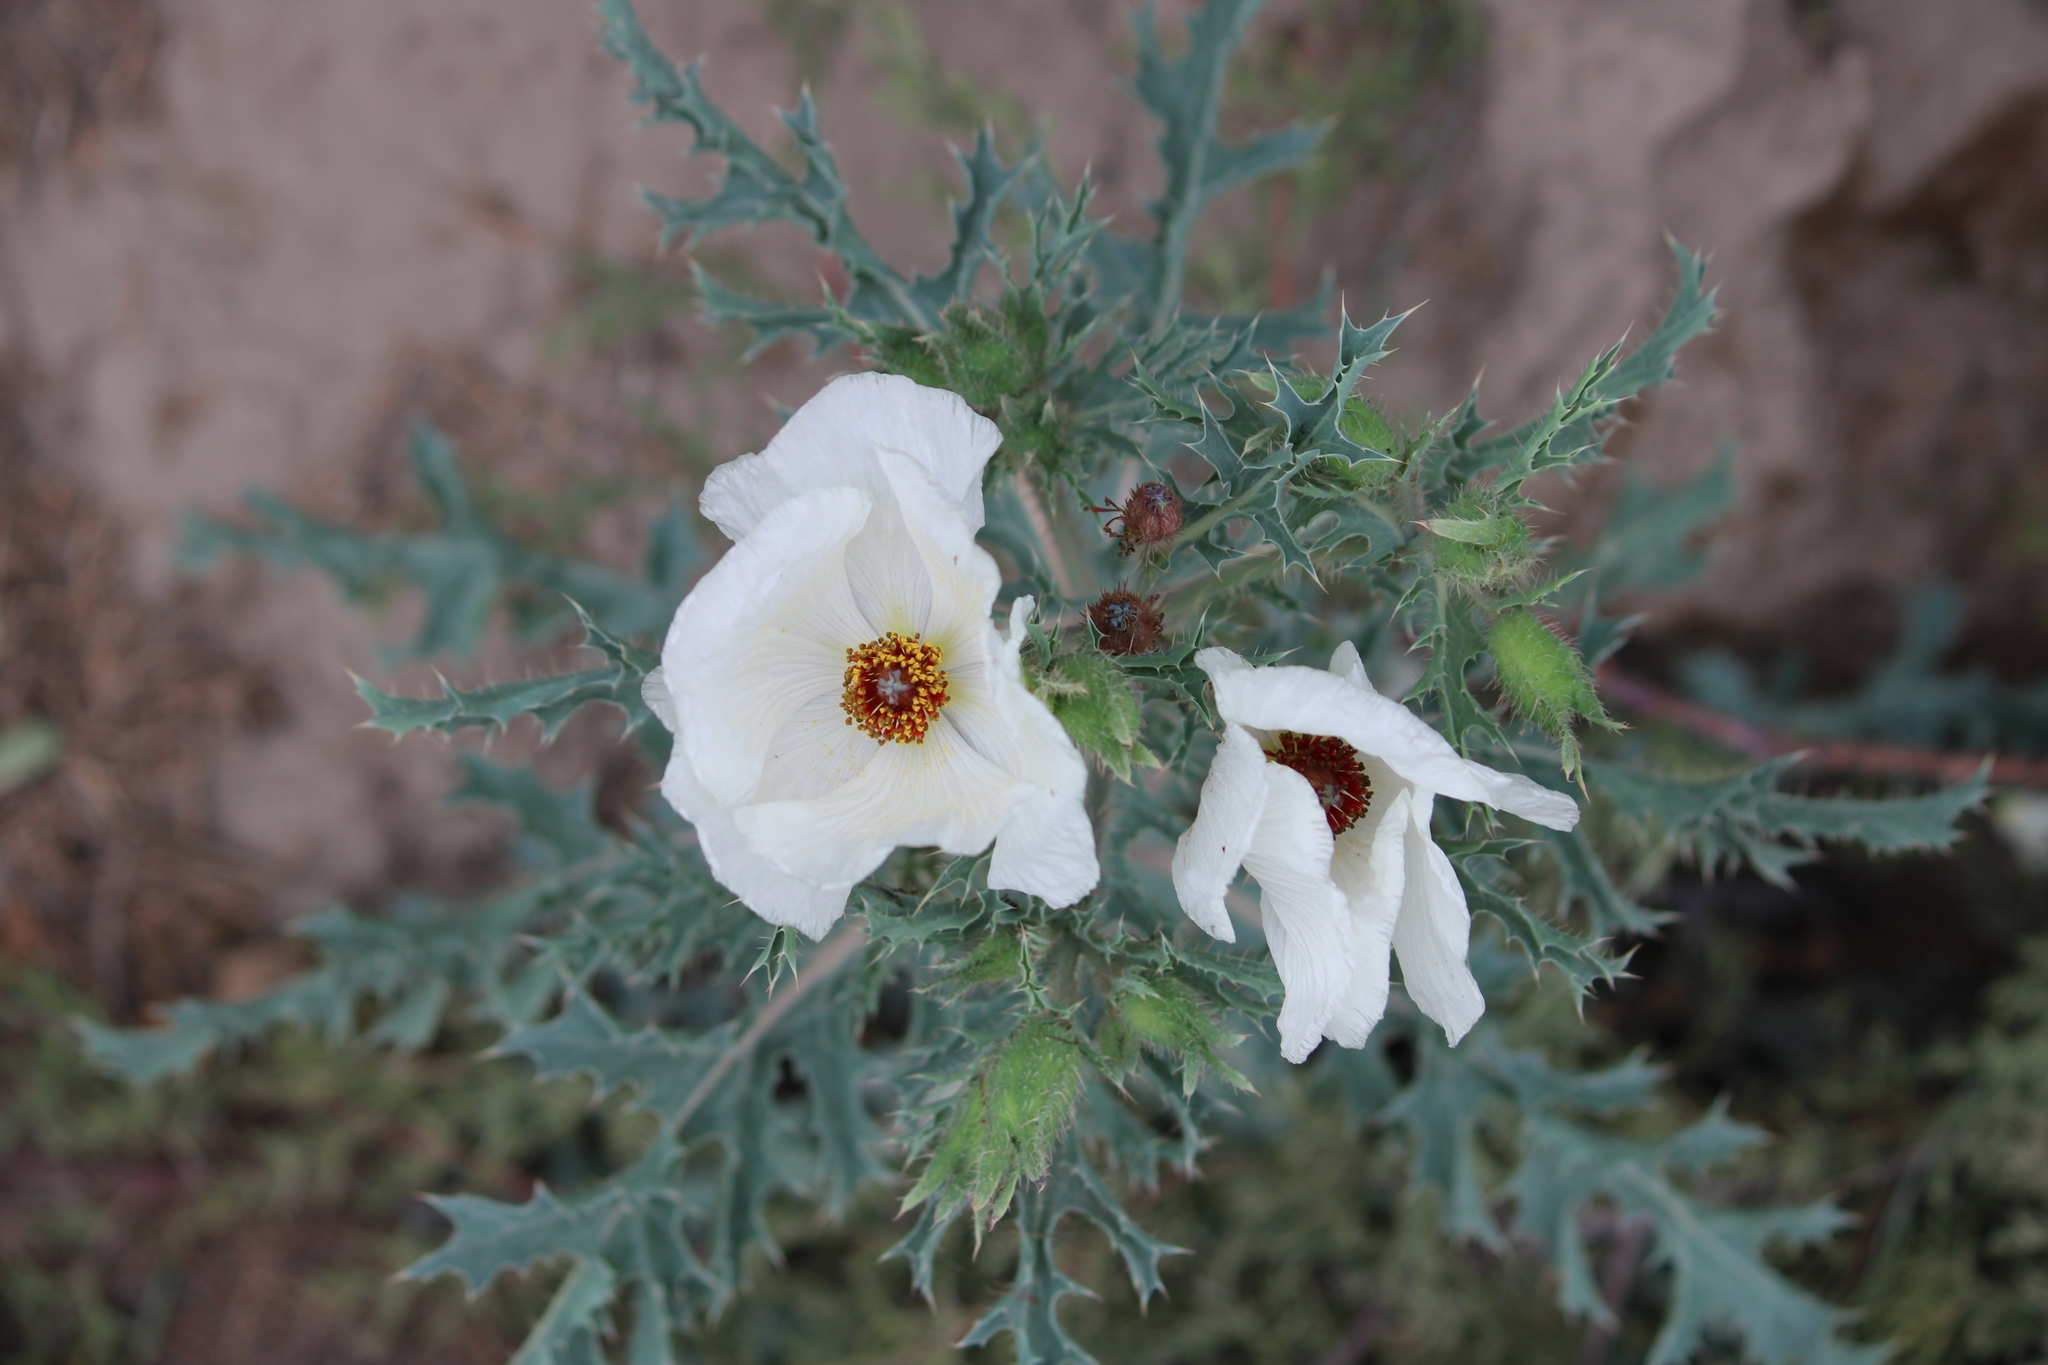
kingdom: Plantae
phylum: Tracheophyta
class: Magnoliopsida
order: Ranunculales
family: Papaveraceae
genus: Argemone
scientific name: Argemone platyceras
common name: Crested-poppy
